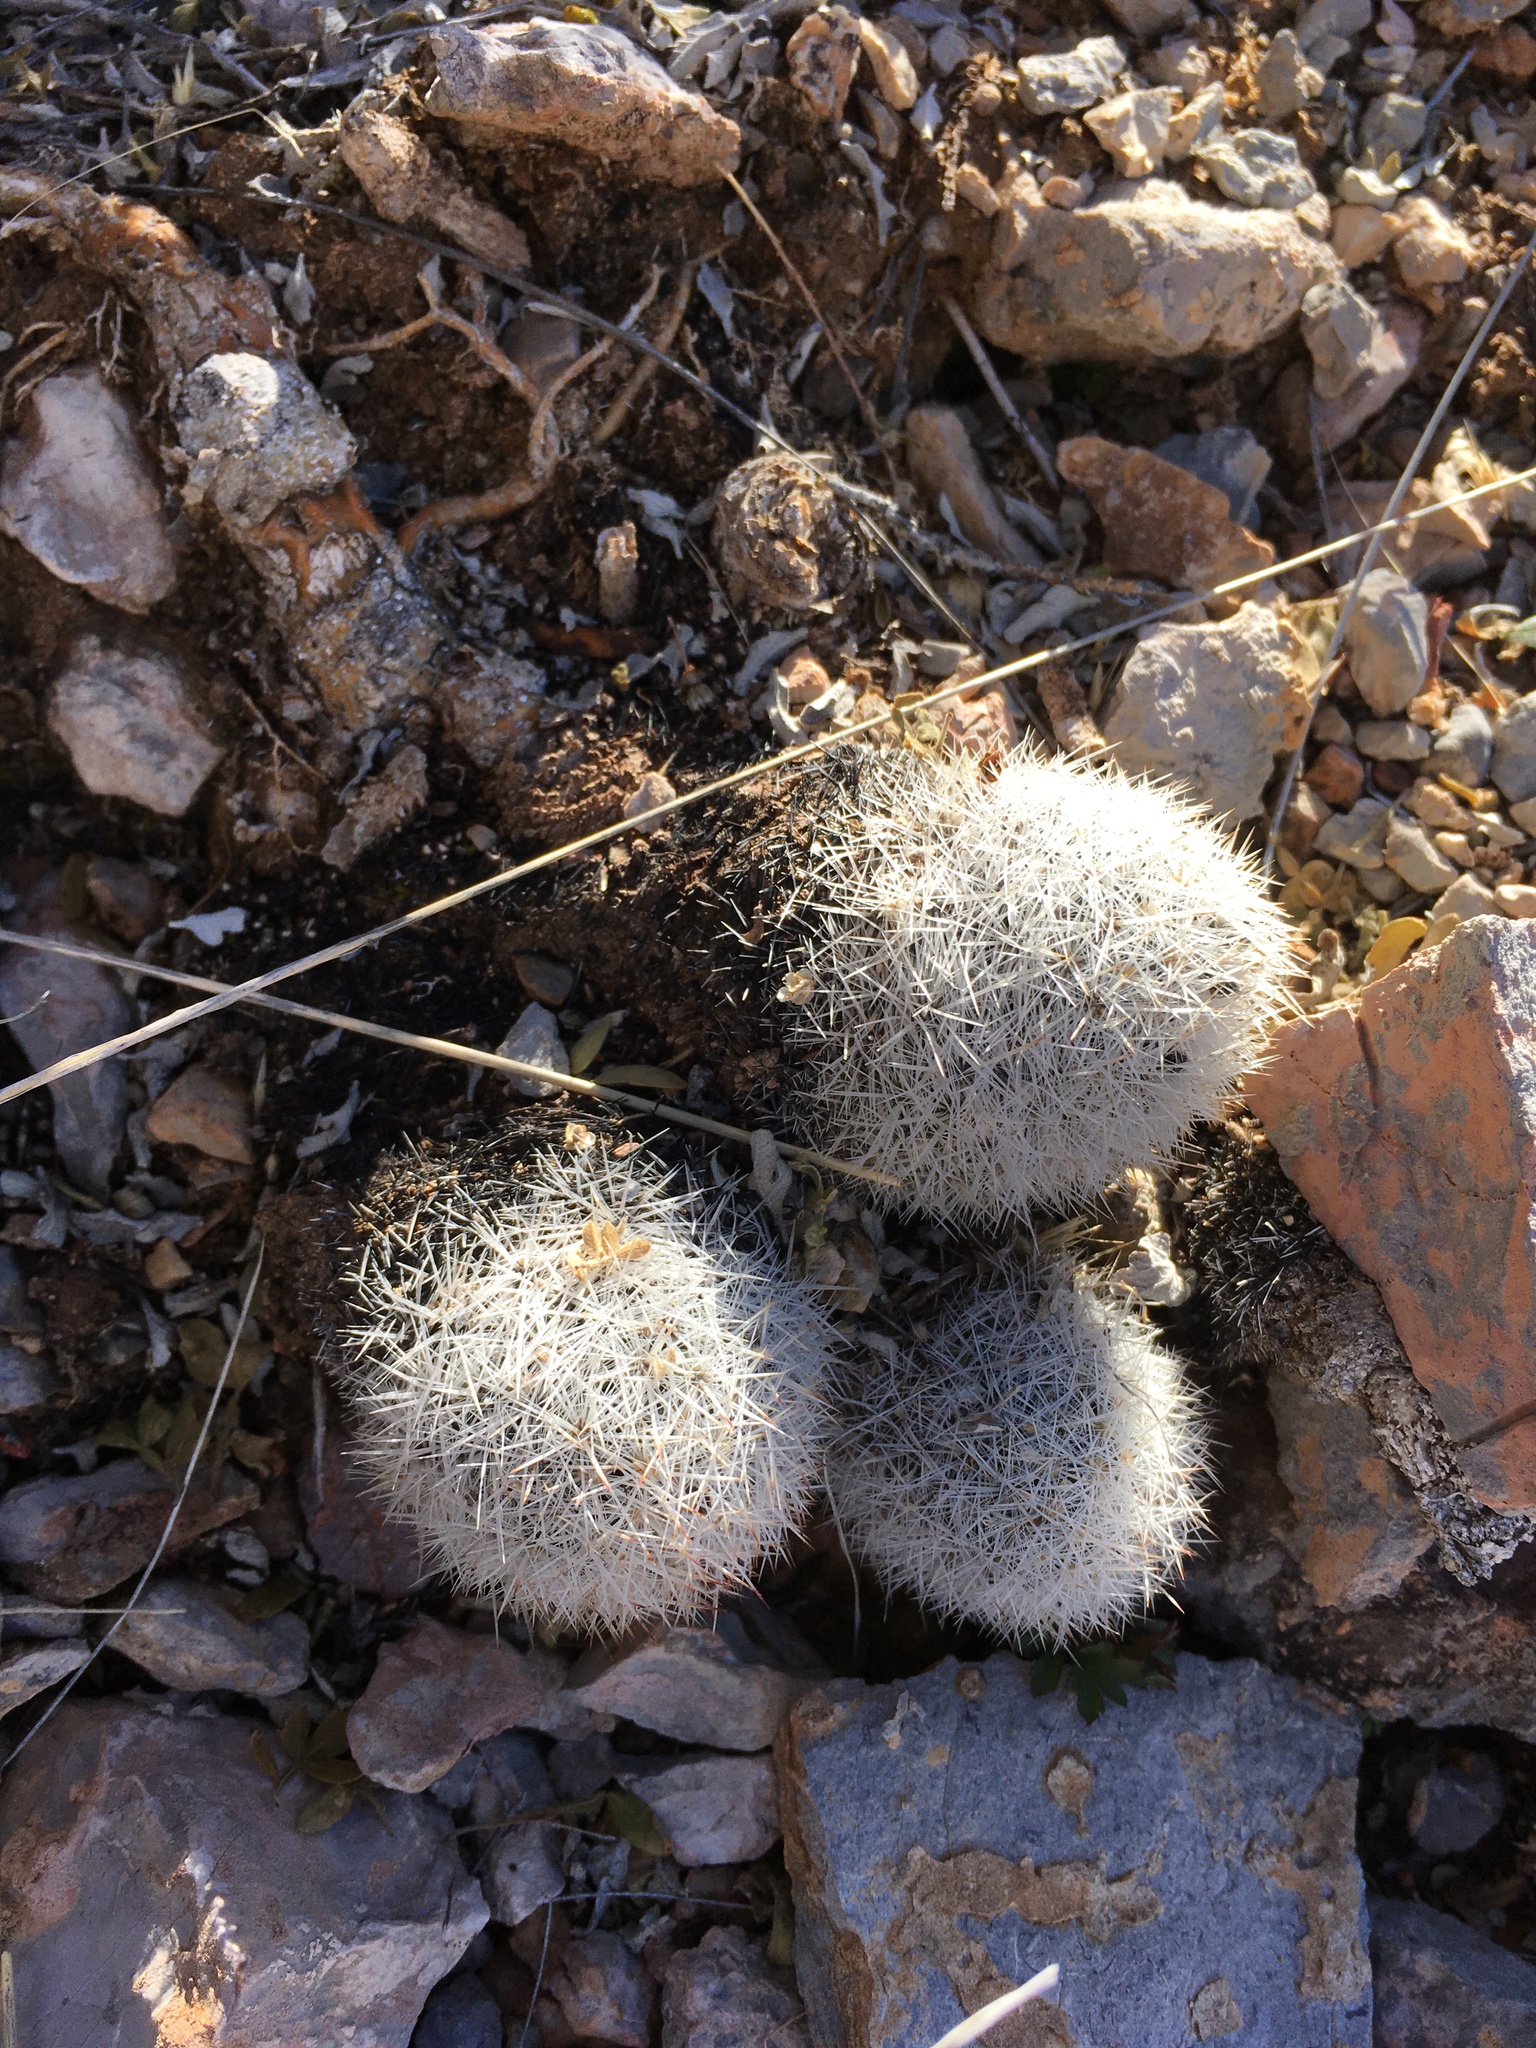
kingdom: Plantae
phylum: Tracheophyta
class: Magnoliopsida
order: Caryophyllales
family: Cactaceae
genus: Pelecyphora
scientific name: Pelecyphora sneedii
